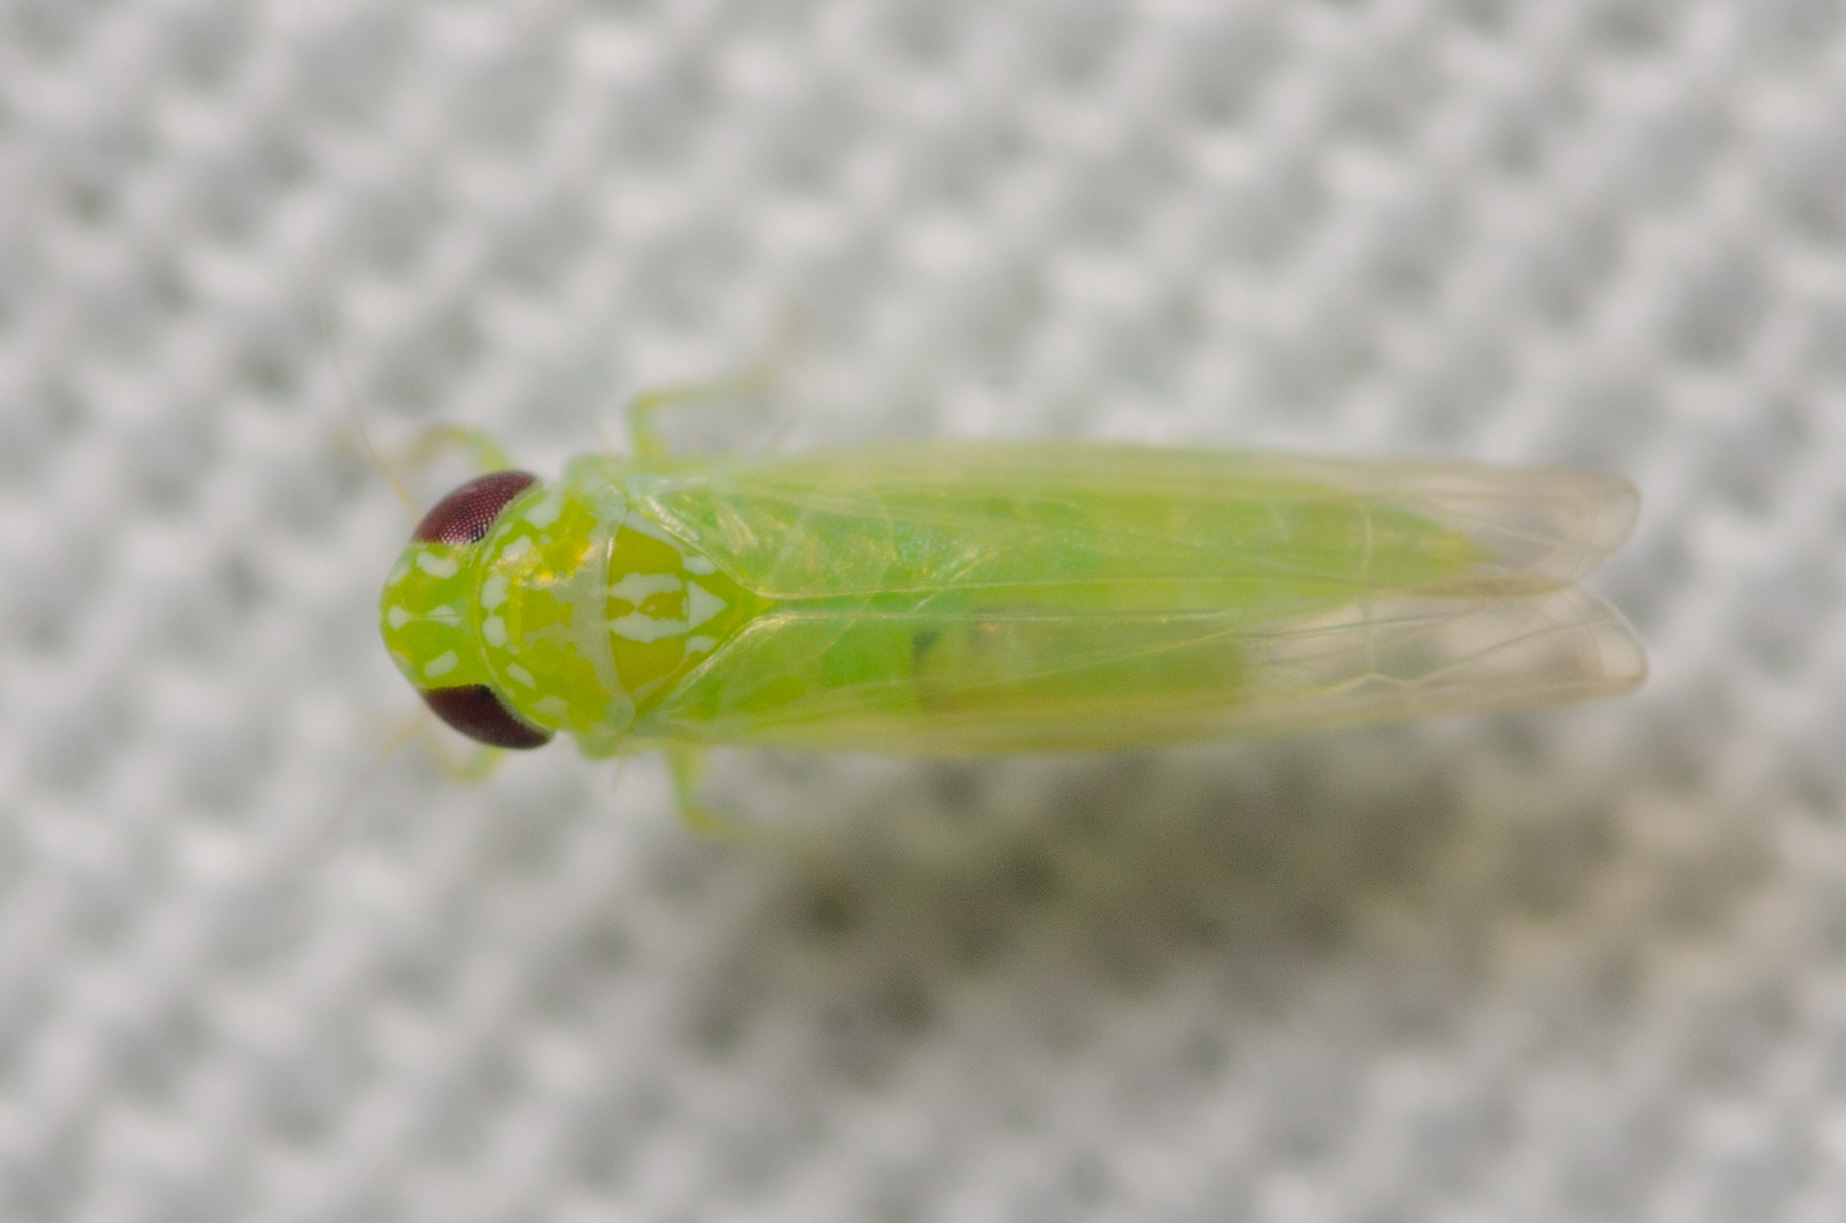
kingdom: Animalia
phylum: Arthropoda
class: Insecta
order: Hemiptera
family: Cicadellidae
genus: Empoasca
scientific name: Empoasca fabae
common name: Potato leafhopper
